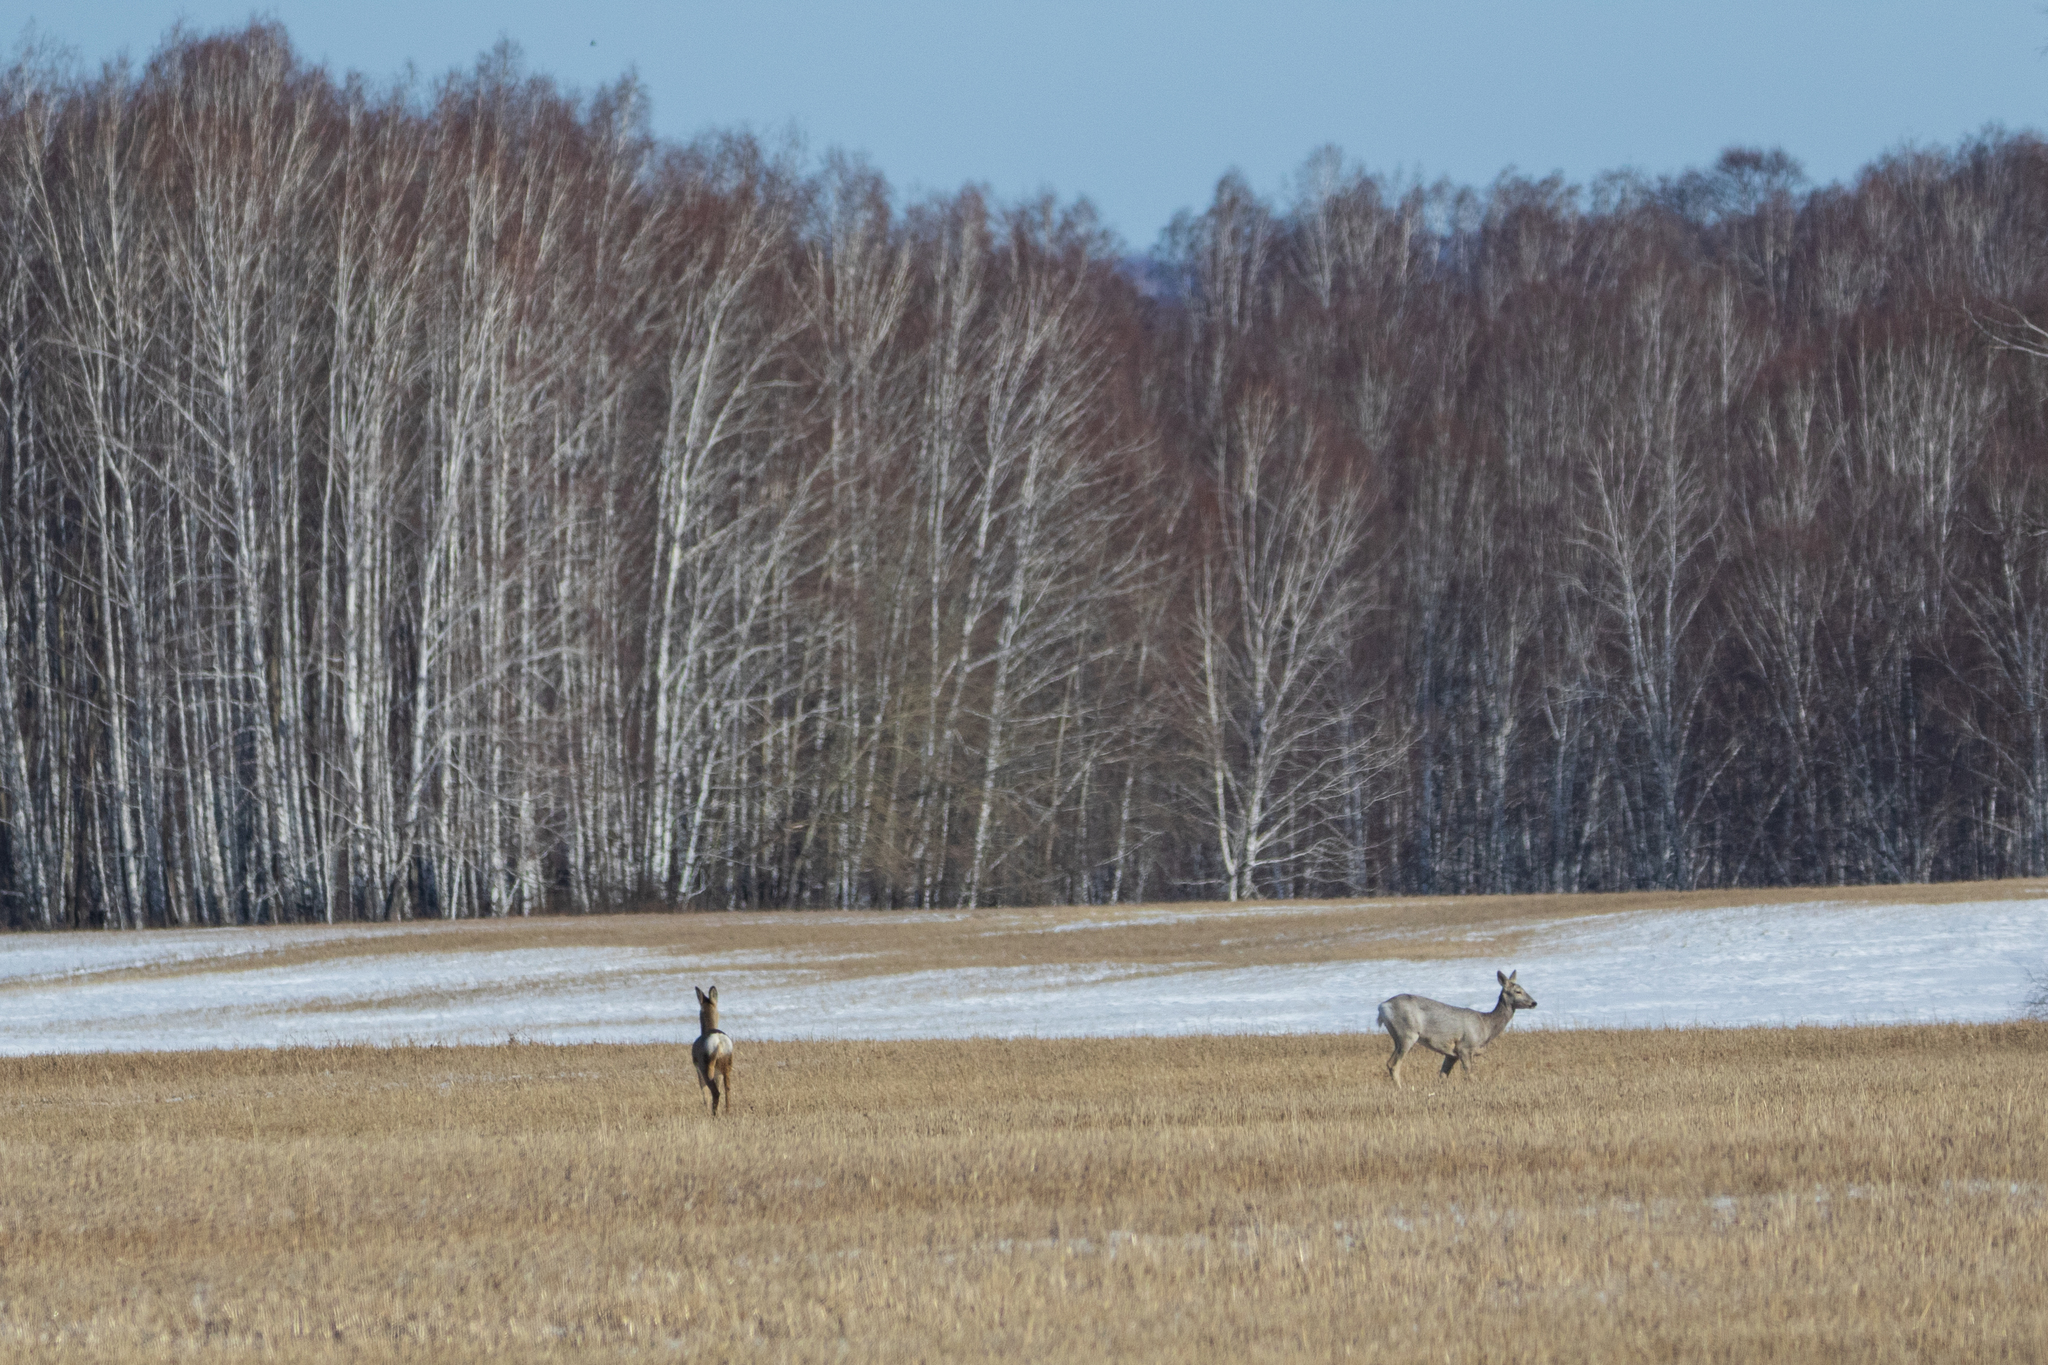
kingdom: Animalia
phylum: Chordata
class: Mammalia
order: Artiodactyla
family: Cervidae
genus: Capreolus
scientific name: Capreolus pygargus
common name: Siberian roe
